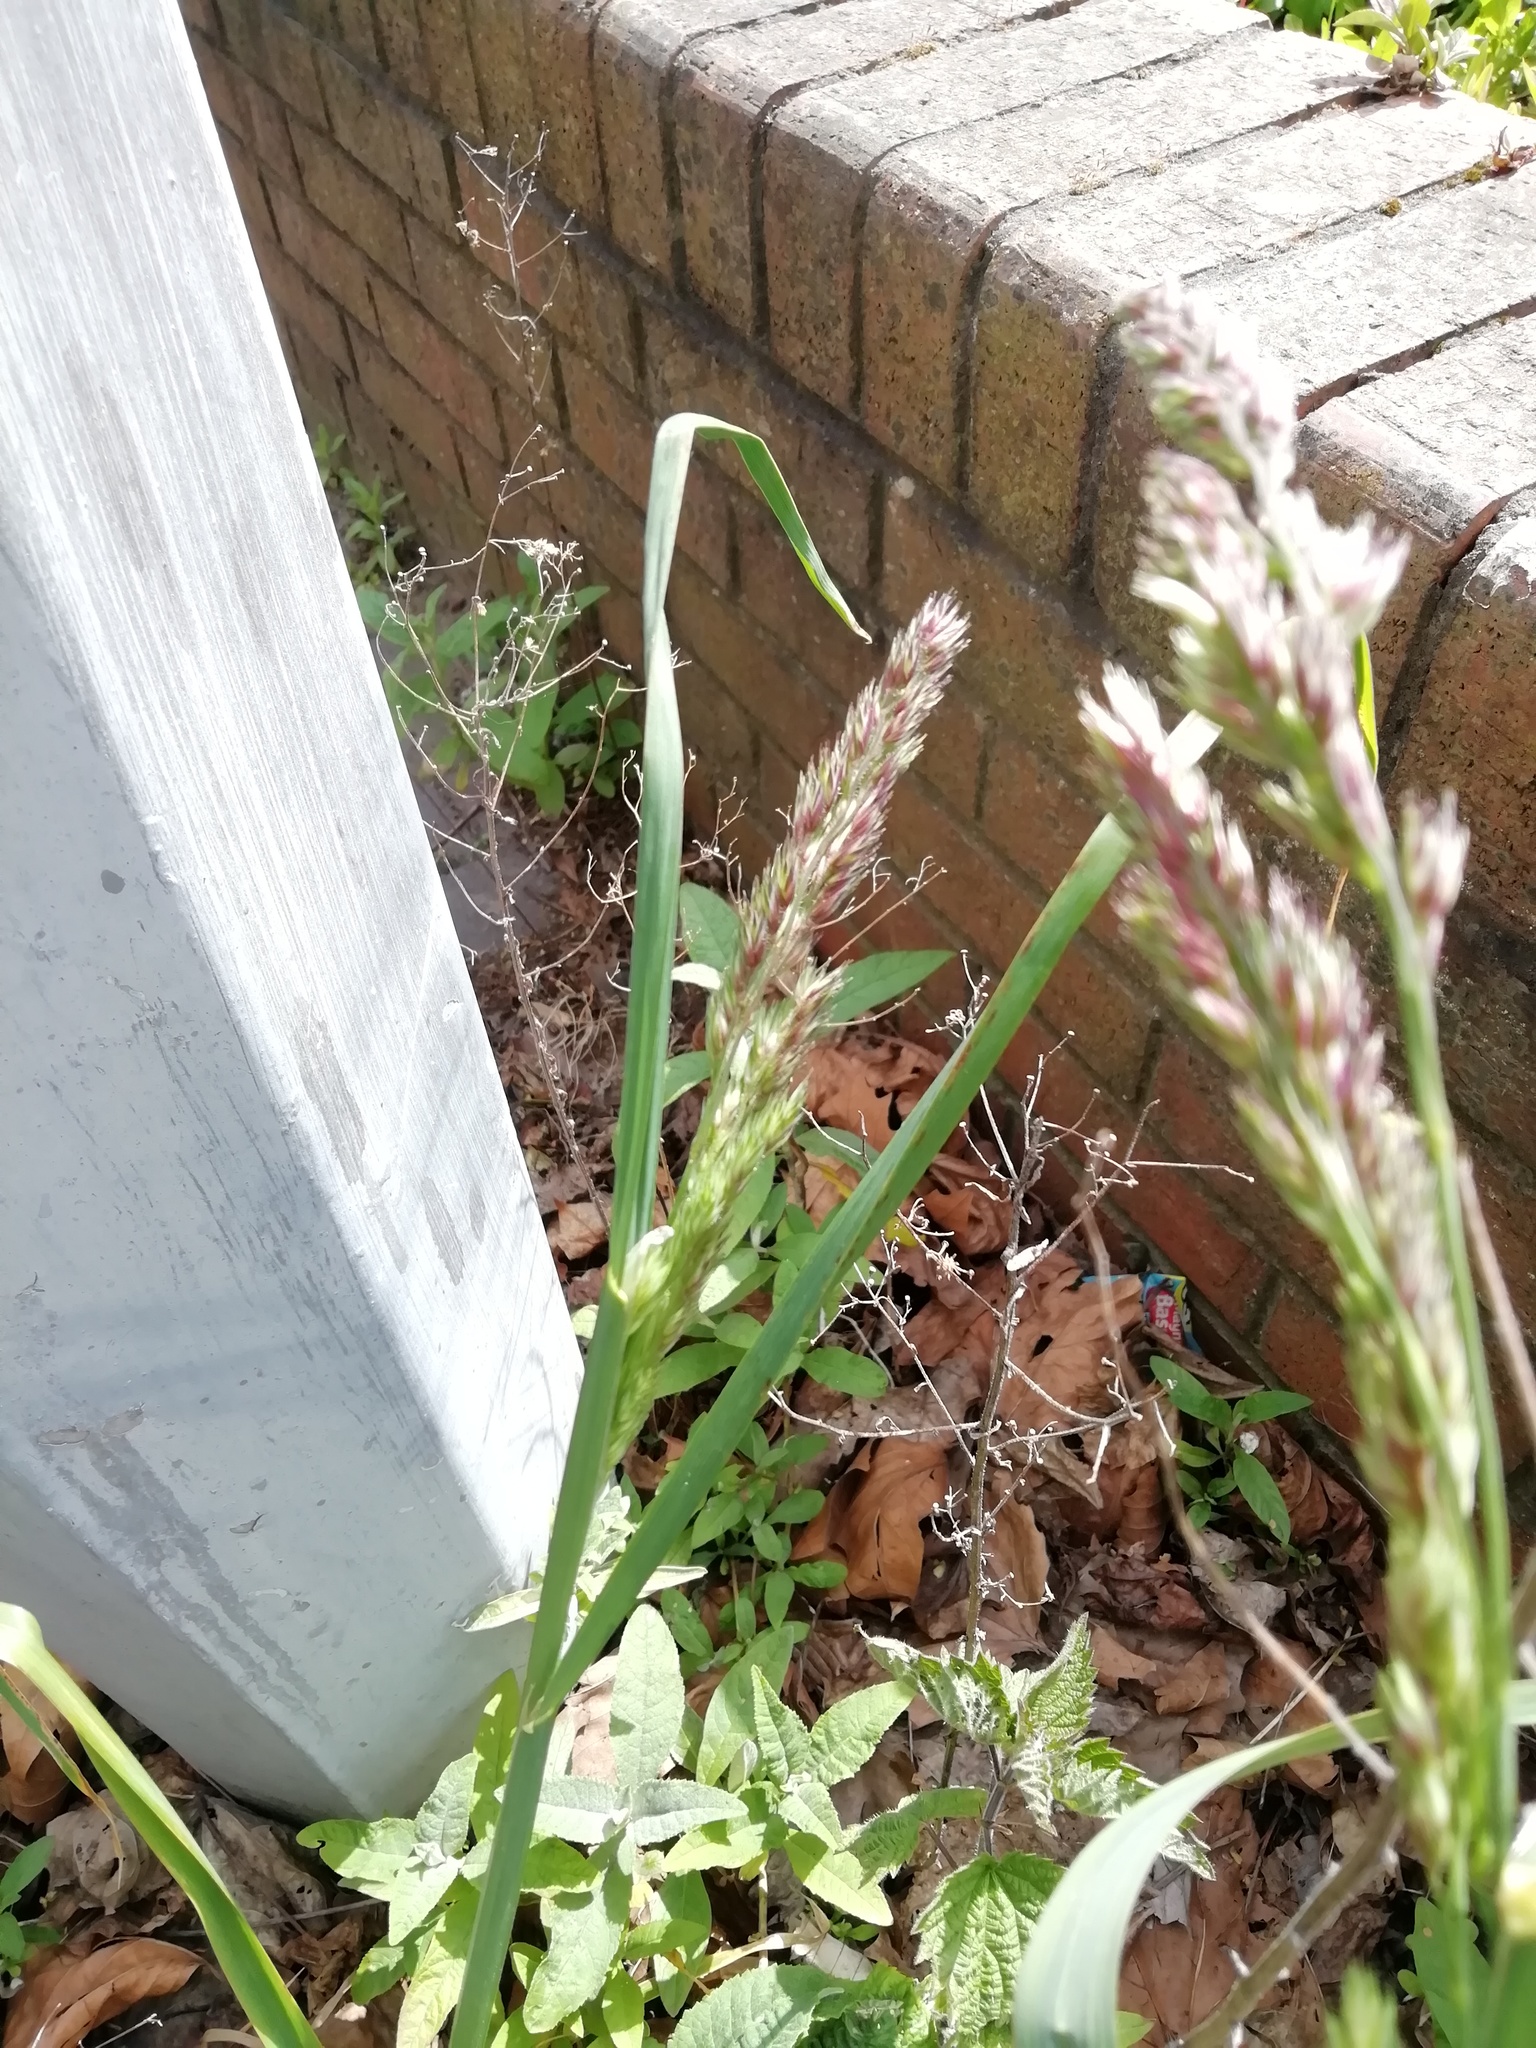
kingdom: Plantae
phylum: Tracheophyta
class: Liliopsida
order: Poales
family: Poaceae
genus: Dactylis
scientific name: Dactylis glomerata
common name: Orchardgrass
